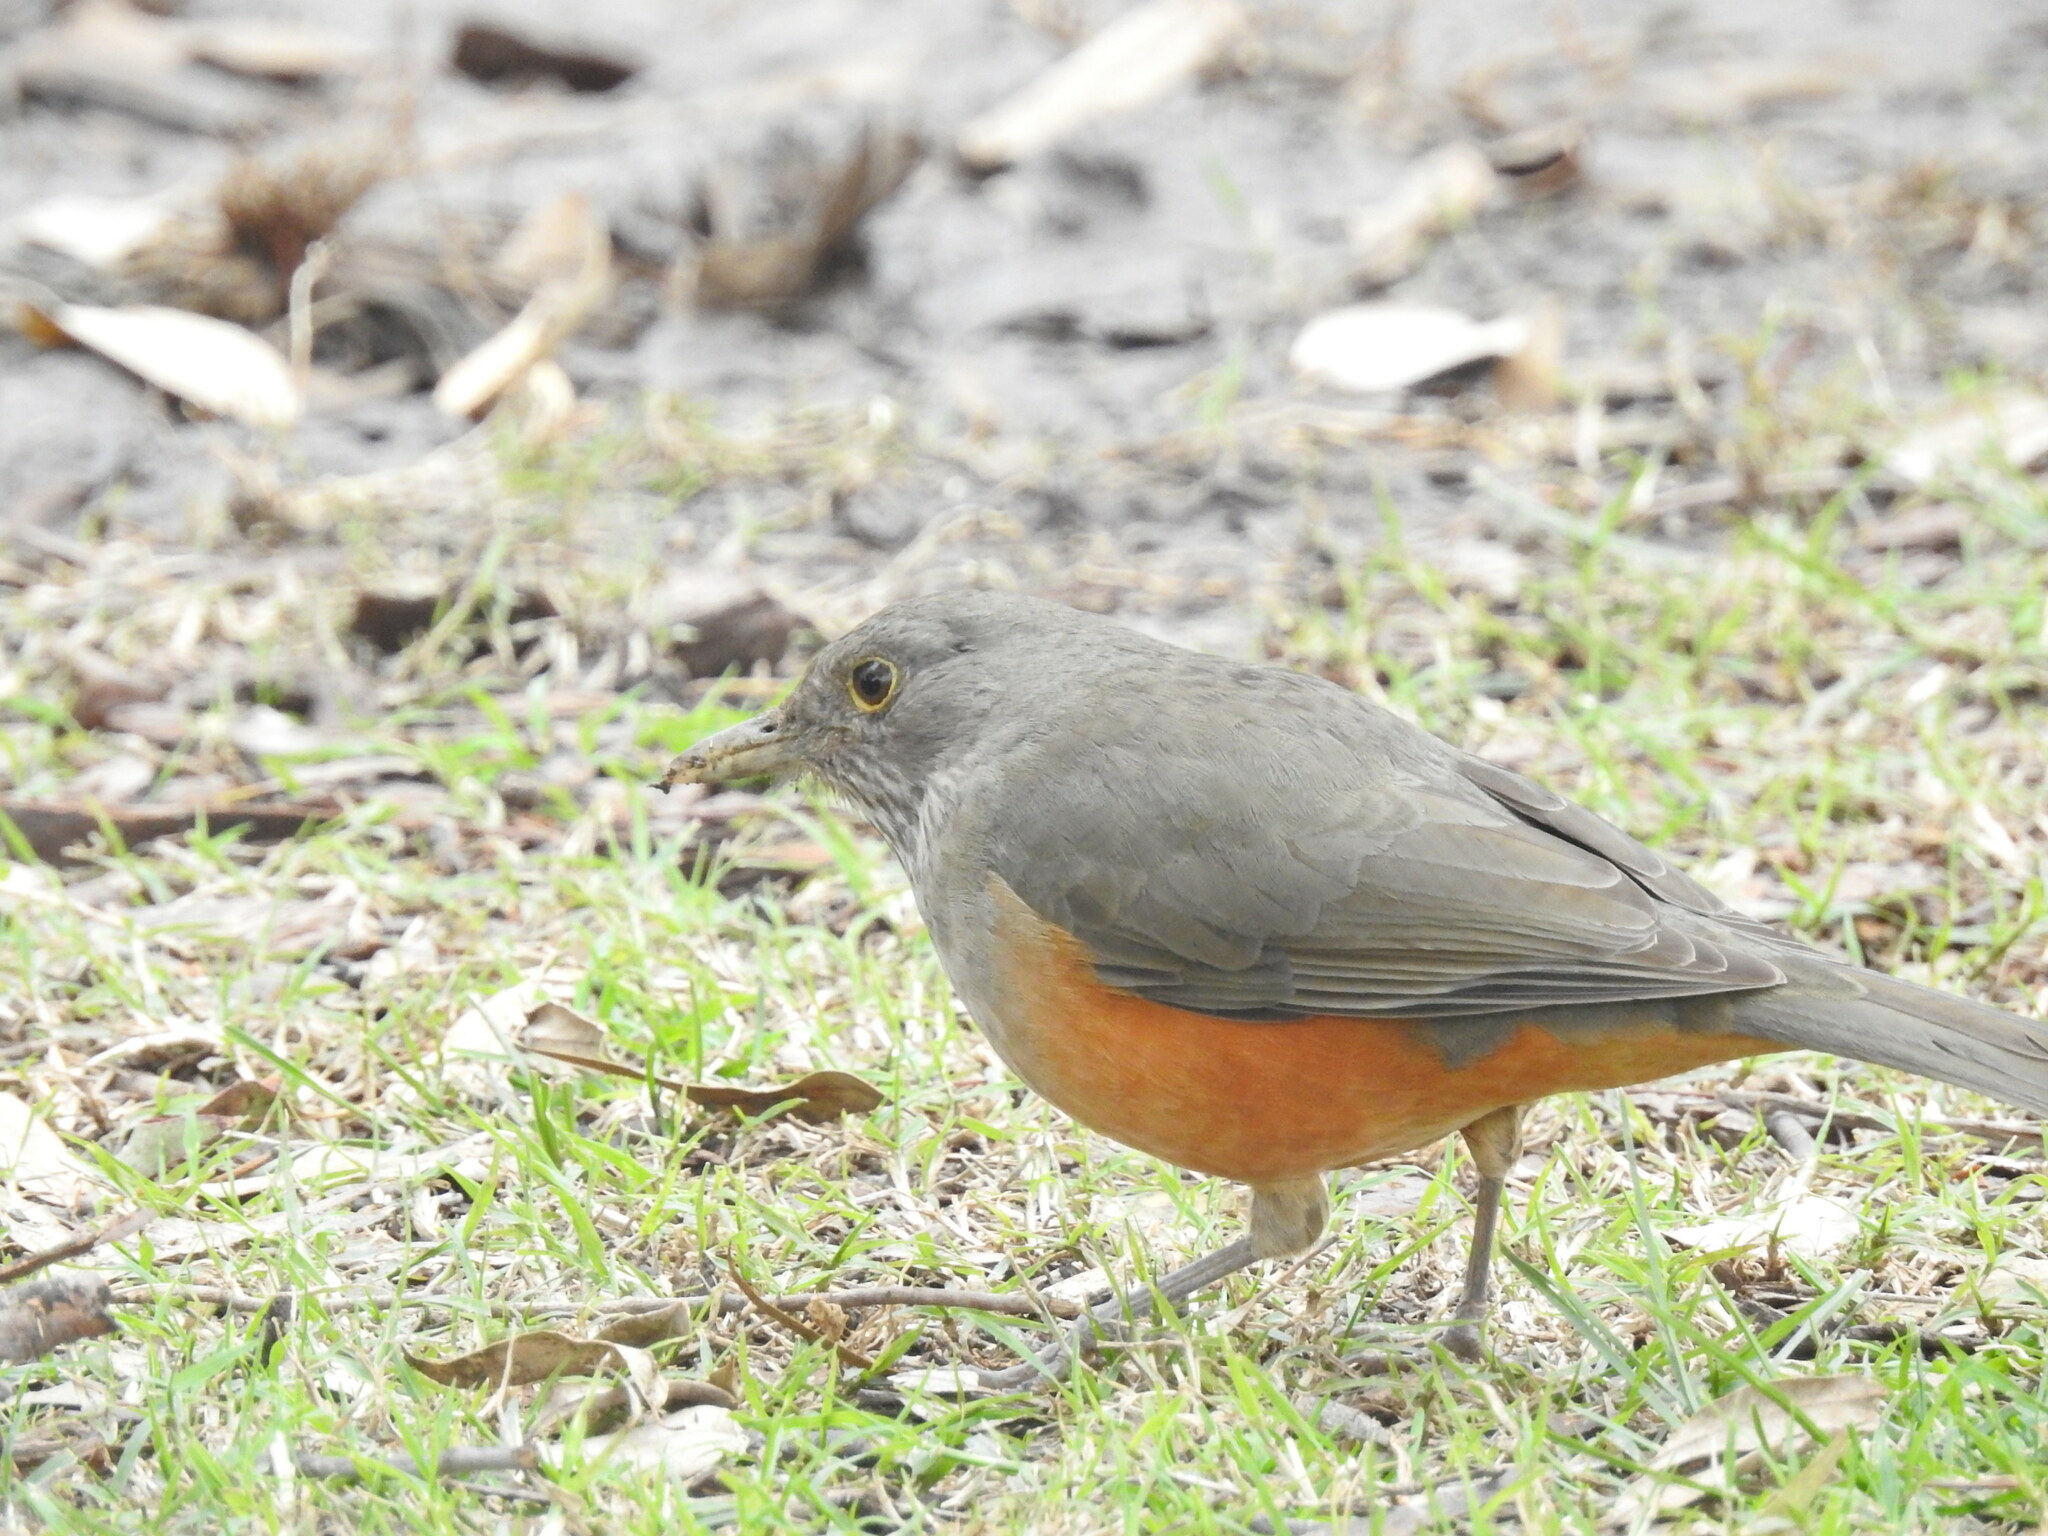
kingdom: Animalia
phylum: Chordata
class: Aves
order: Passeriformes
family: Turdidae
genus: Turdus
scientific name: Turdus rufiventris
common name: Rufous-bellied thrush
